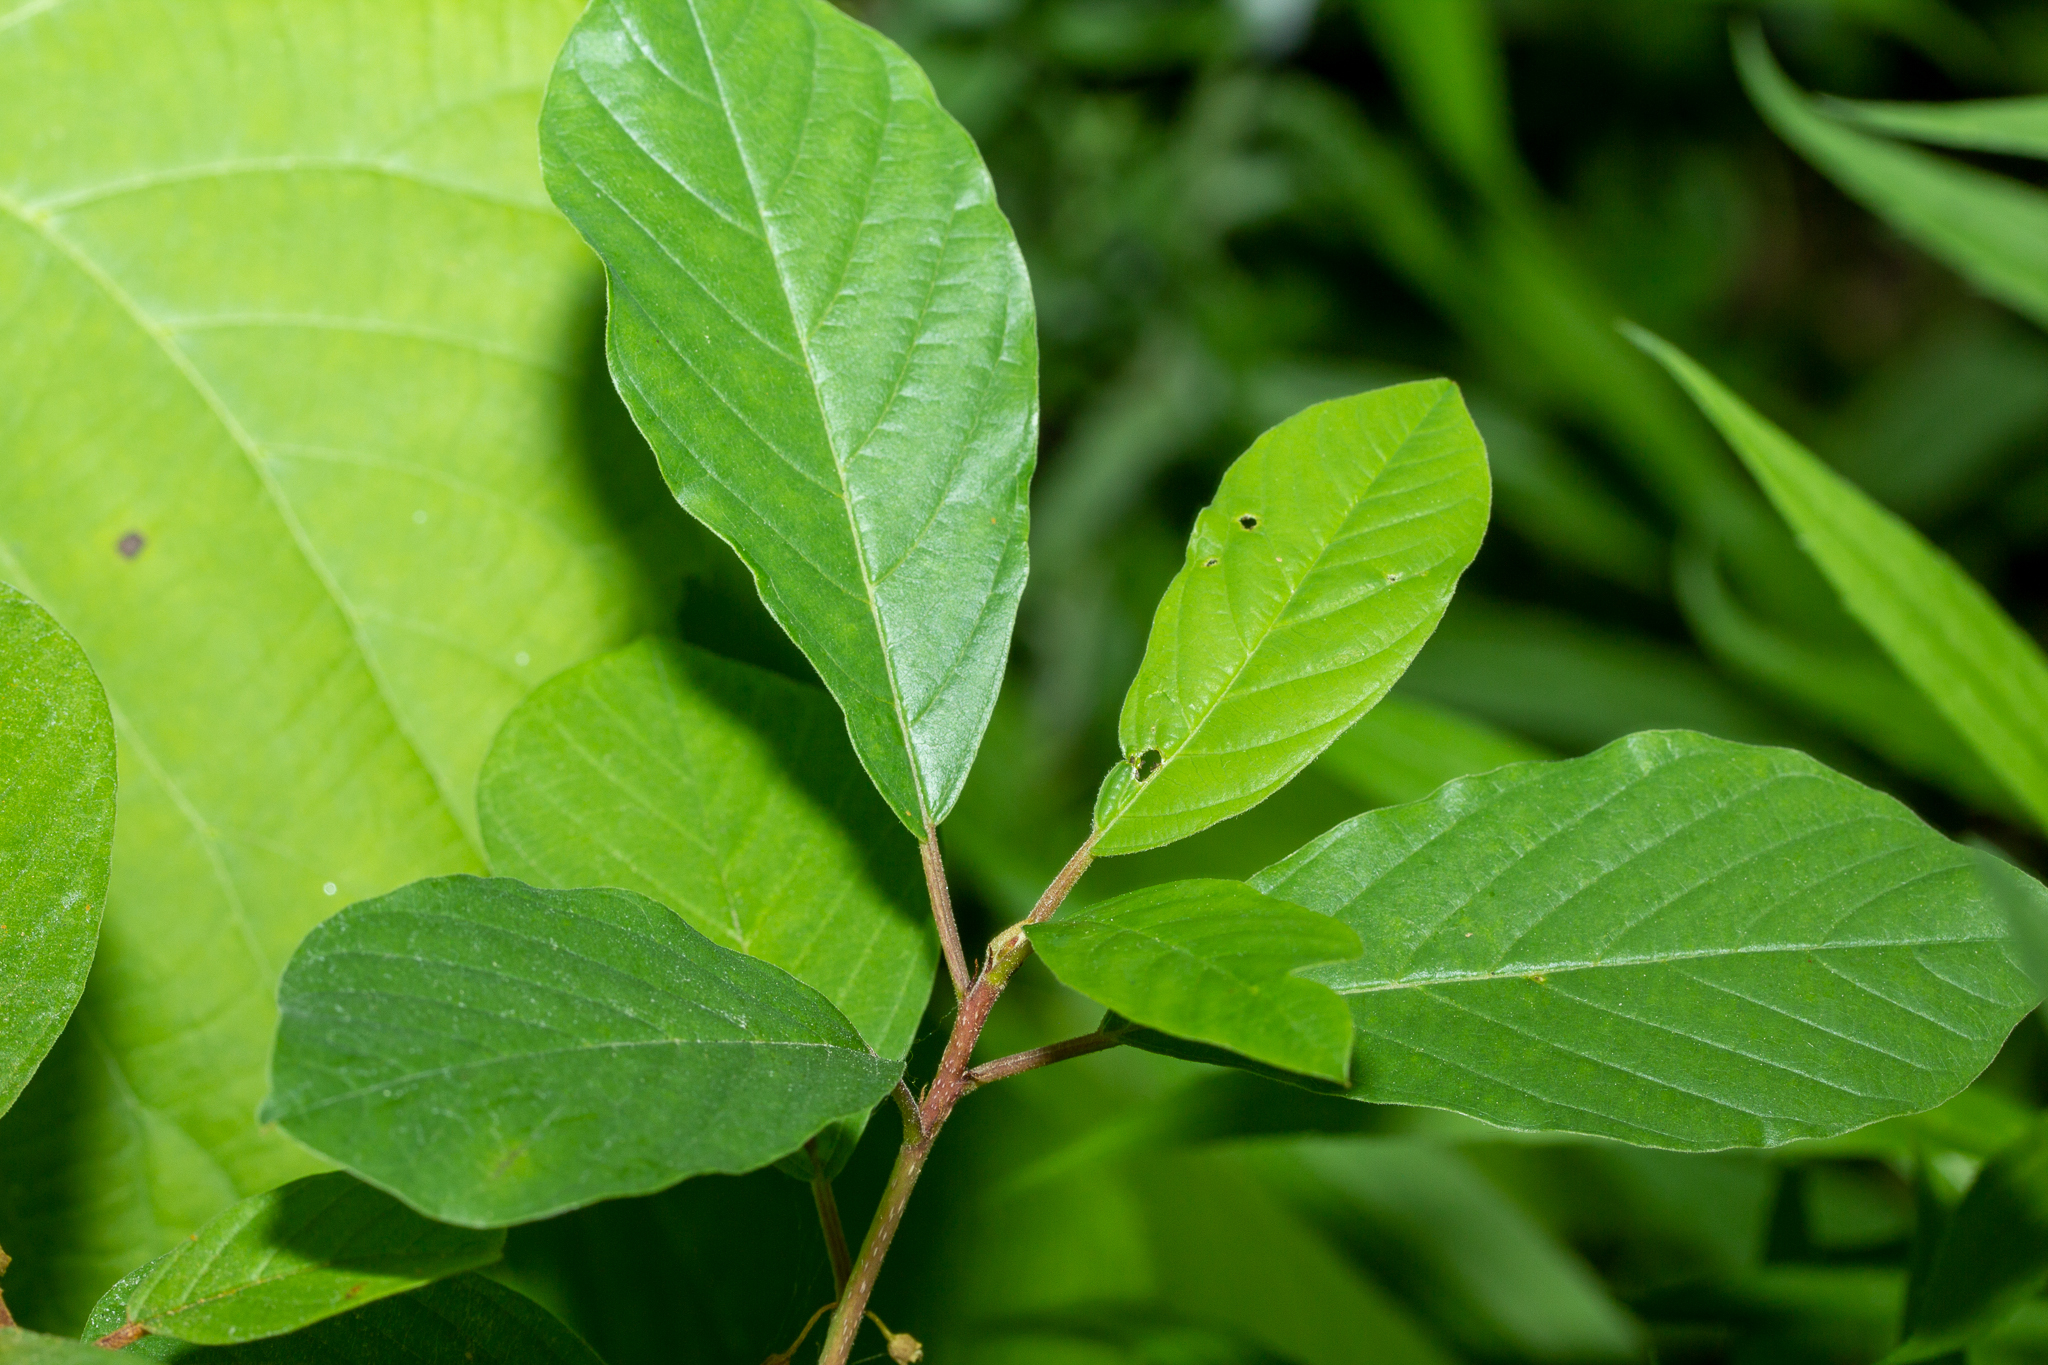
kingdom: Plantae
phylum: Tracheophyta
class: Magnoliopsida
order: Rosales
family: Rhamnaceae
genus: Frangula
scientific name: Frangula alnus
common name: Alder buckthorn
